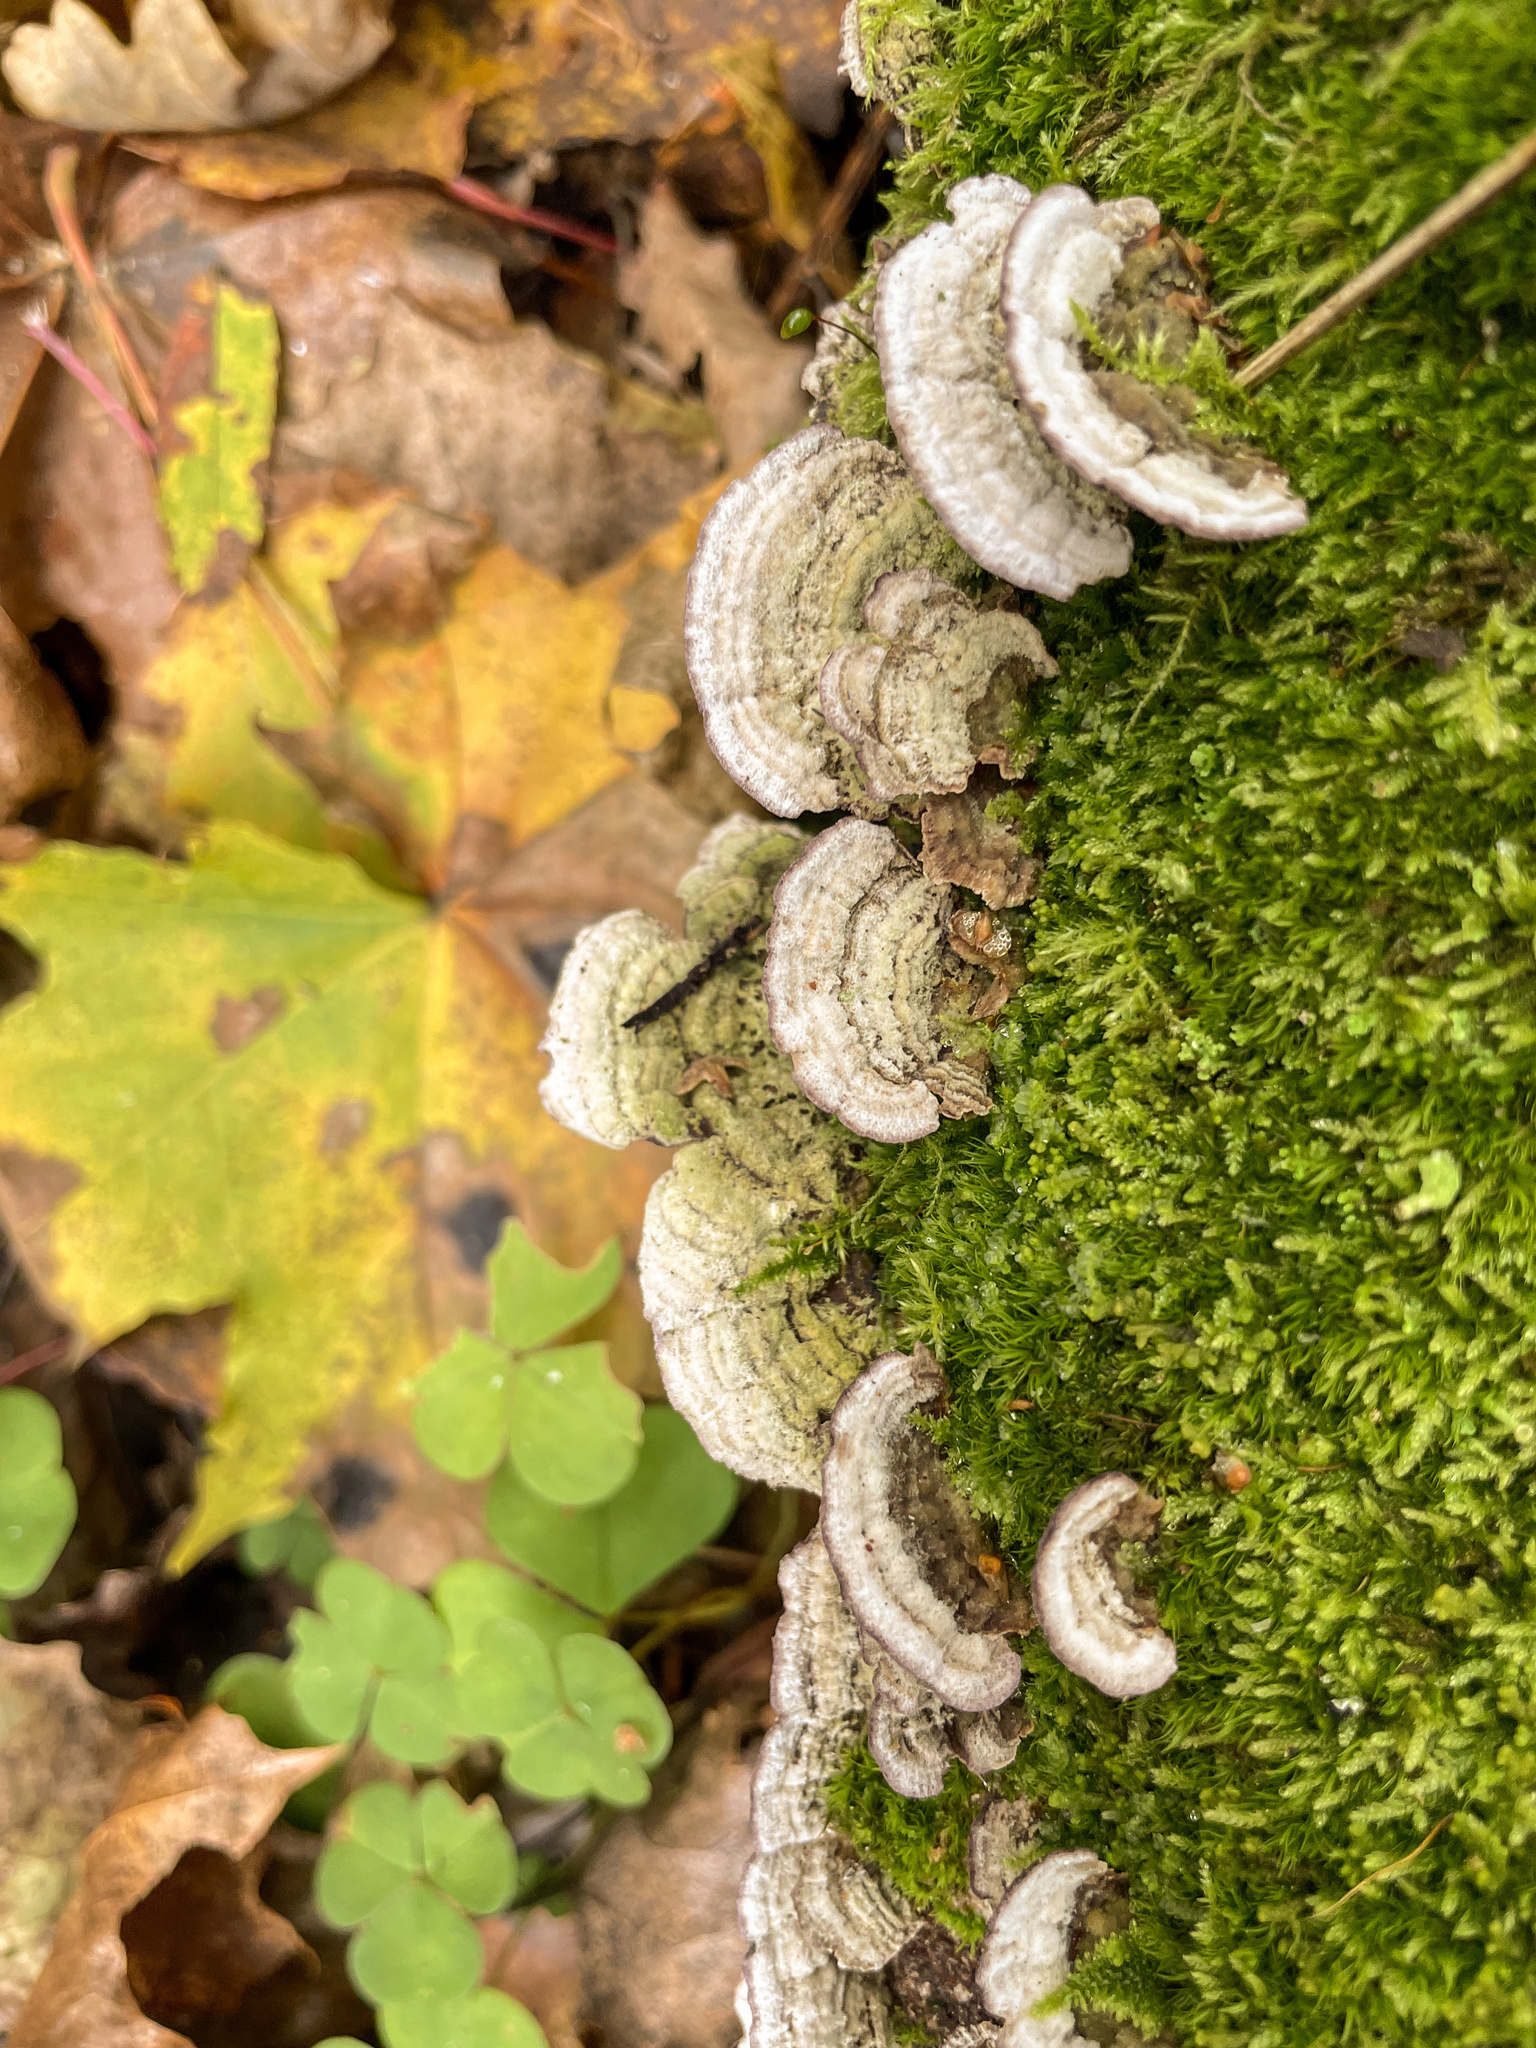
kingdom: Fungi
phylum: Basidiomycota
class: Agaricomycetes
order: Polyporales
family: Cerrenaceae
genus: Cerrena
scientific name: Cerrena unicolor
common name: Mossy maze polypore
